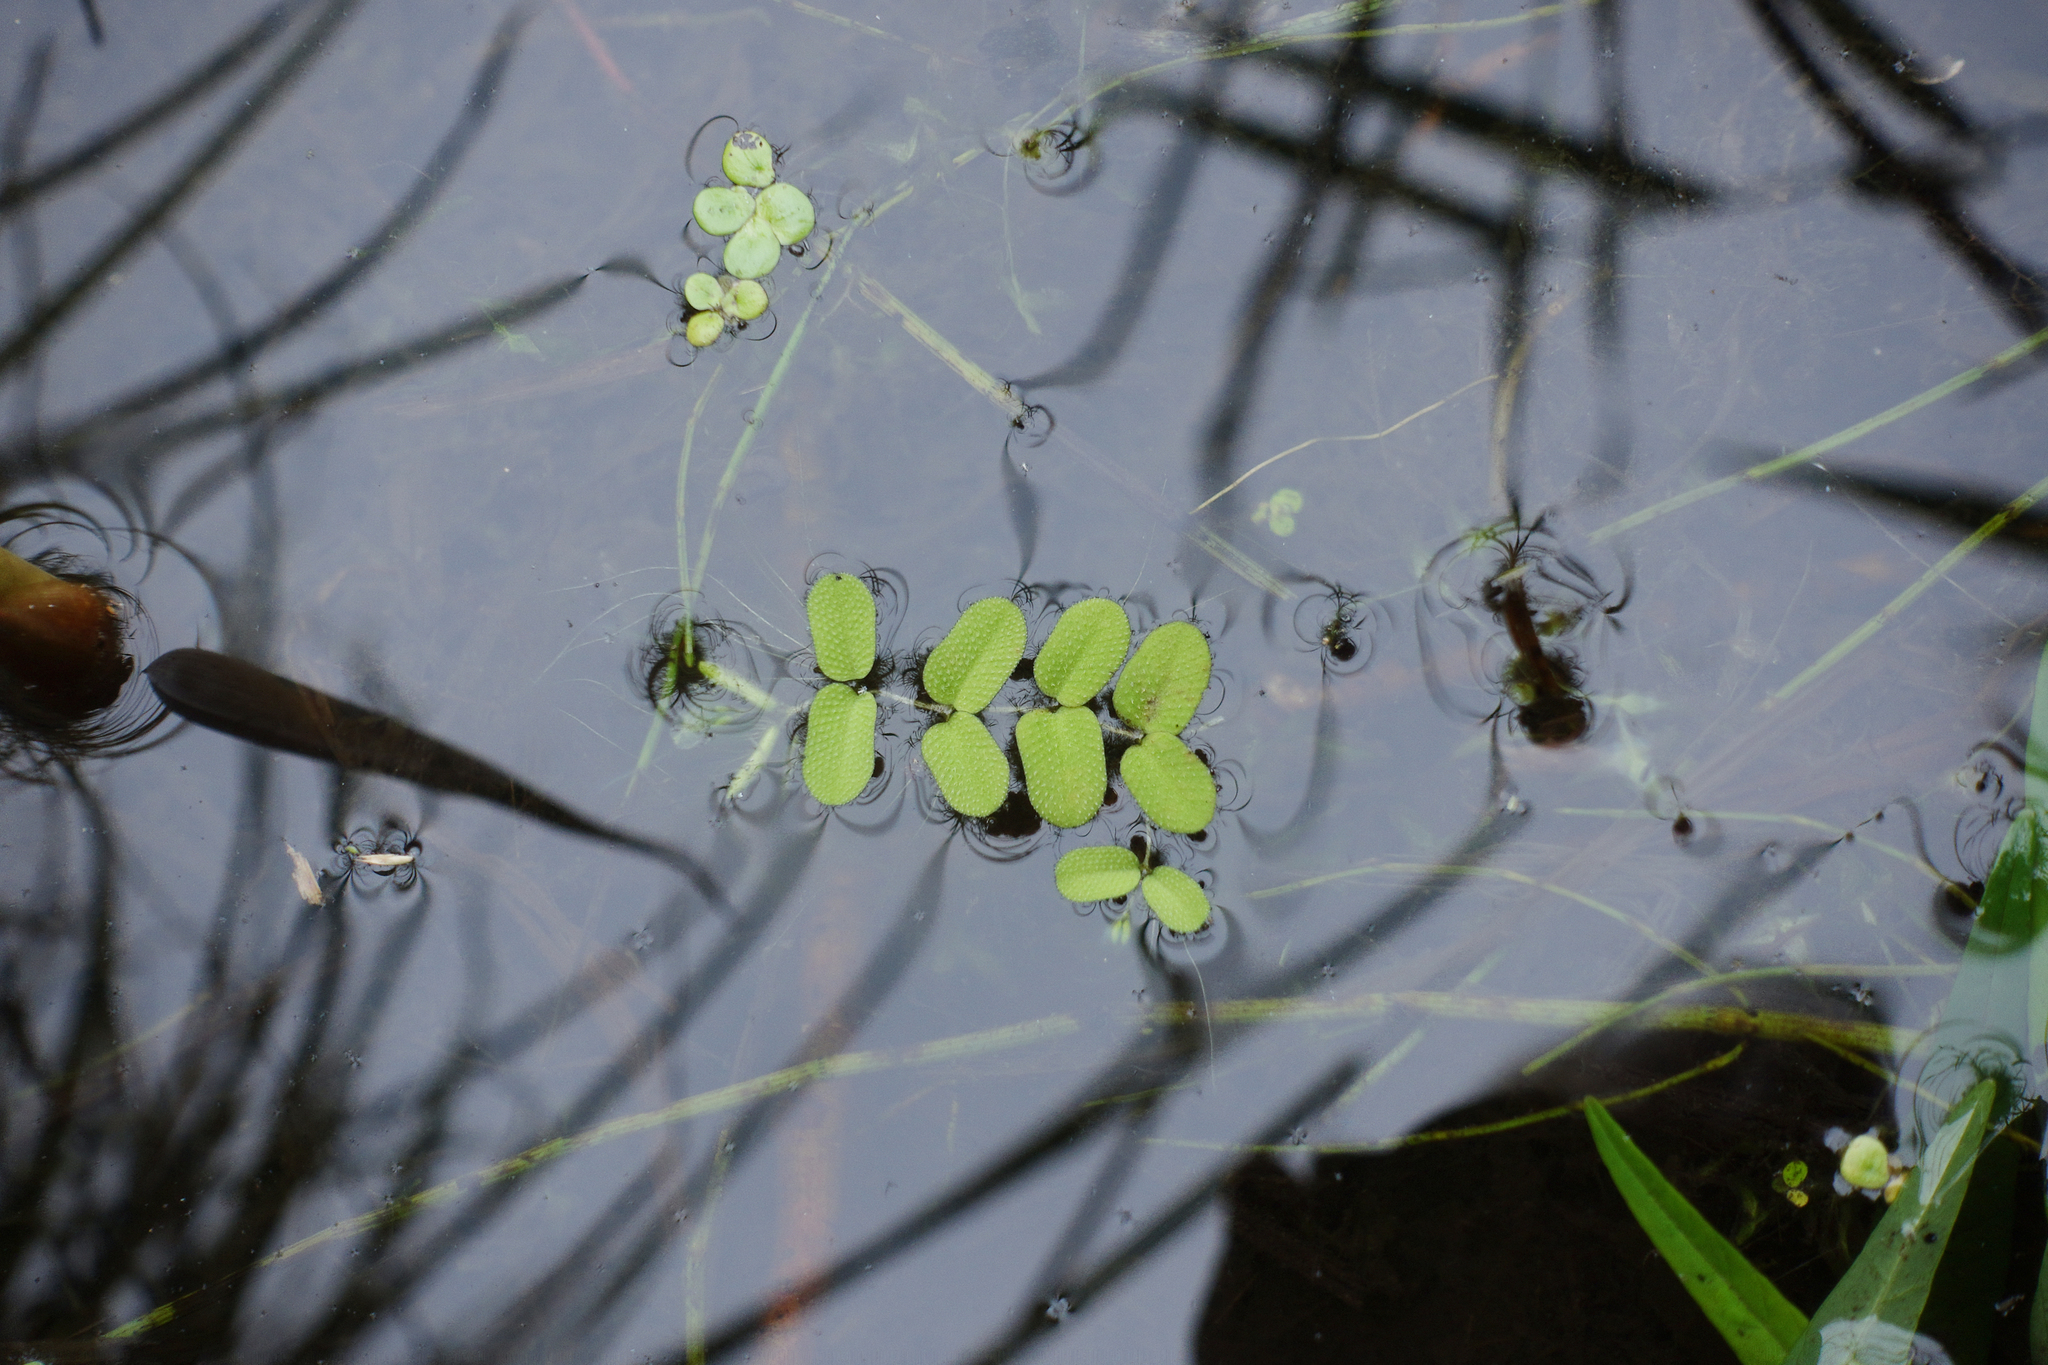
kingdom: Plantae
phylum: Tracheophyta
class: Polypodiopsida
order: Salviniales
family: Salviniaceae
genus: Salvinia
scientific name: Salvinia natans
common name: Floating fern
